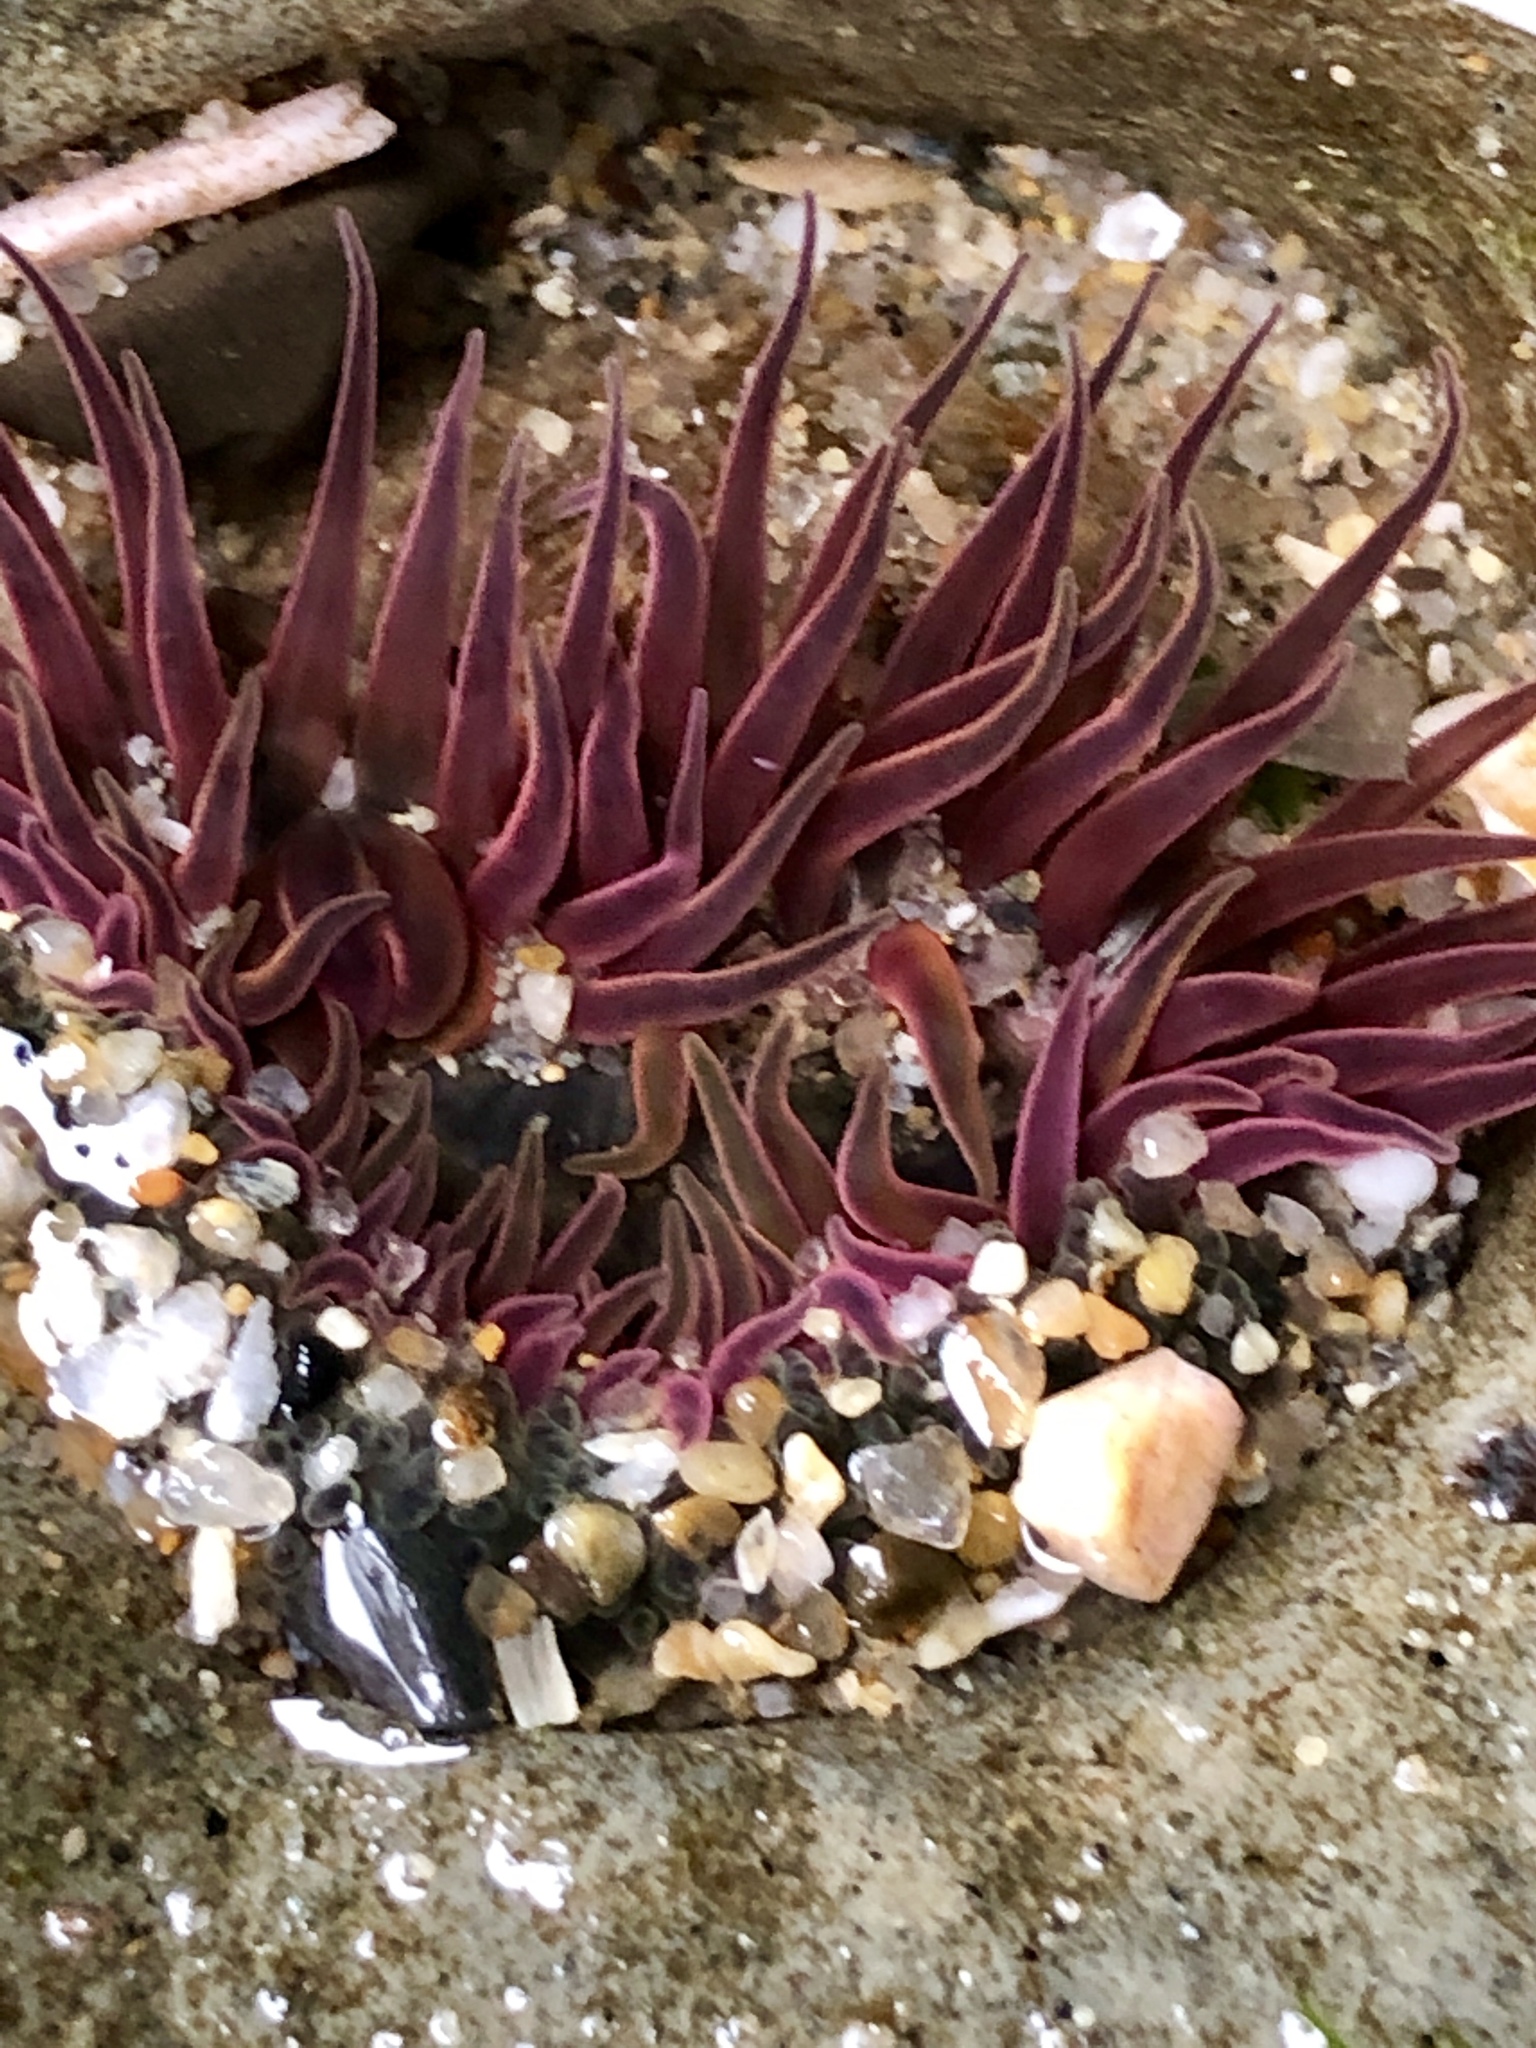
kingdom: Animalia
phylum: Cnidaria
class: Anthozoa
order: Actiniaria
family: Actiniidae
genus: Anthopleura
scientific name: Anthopleura artemisia
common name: Buried sea anemone
